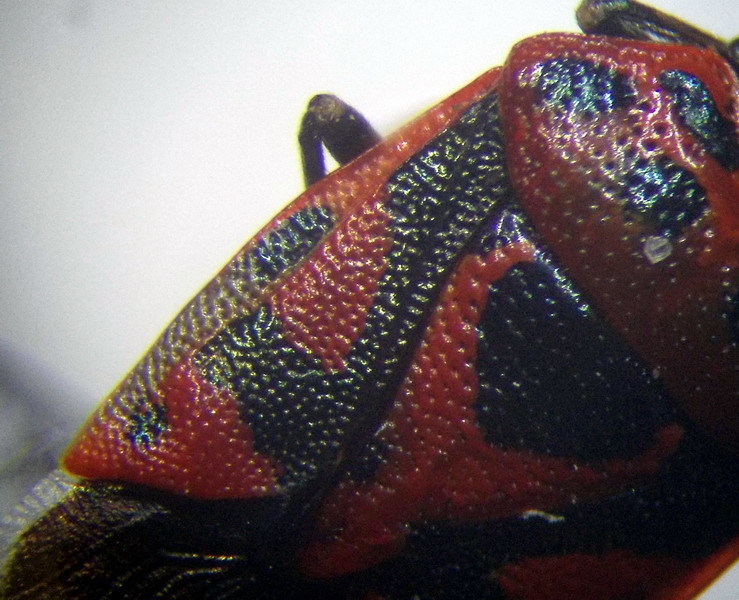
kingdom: Animalia
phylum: Arthropoda
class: Insecta
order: Hemiptera
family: Pentatomidae
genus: Eurydema
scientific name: Eurydema ornata
